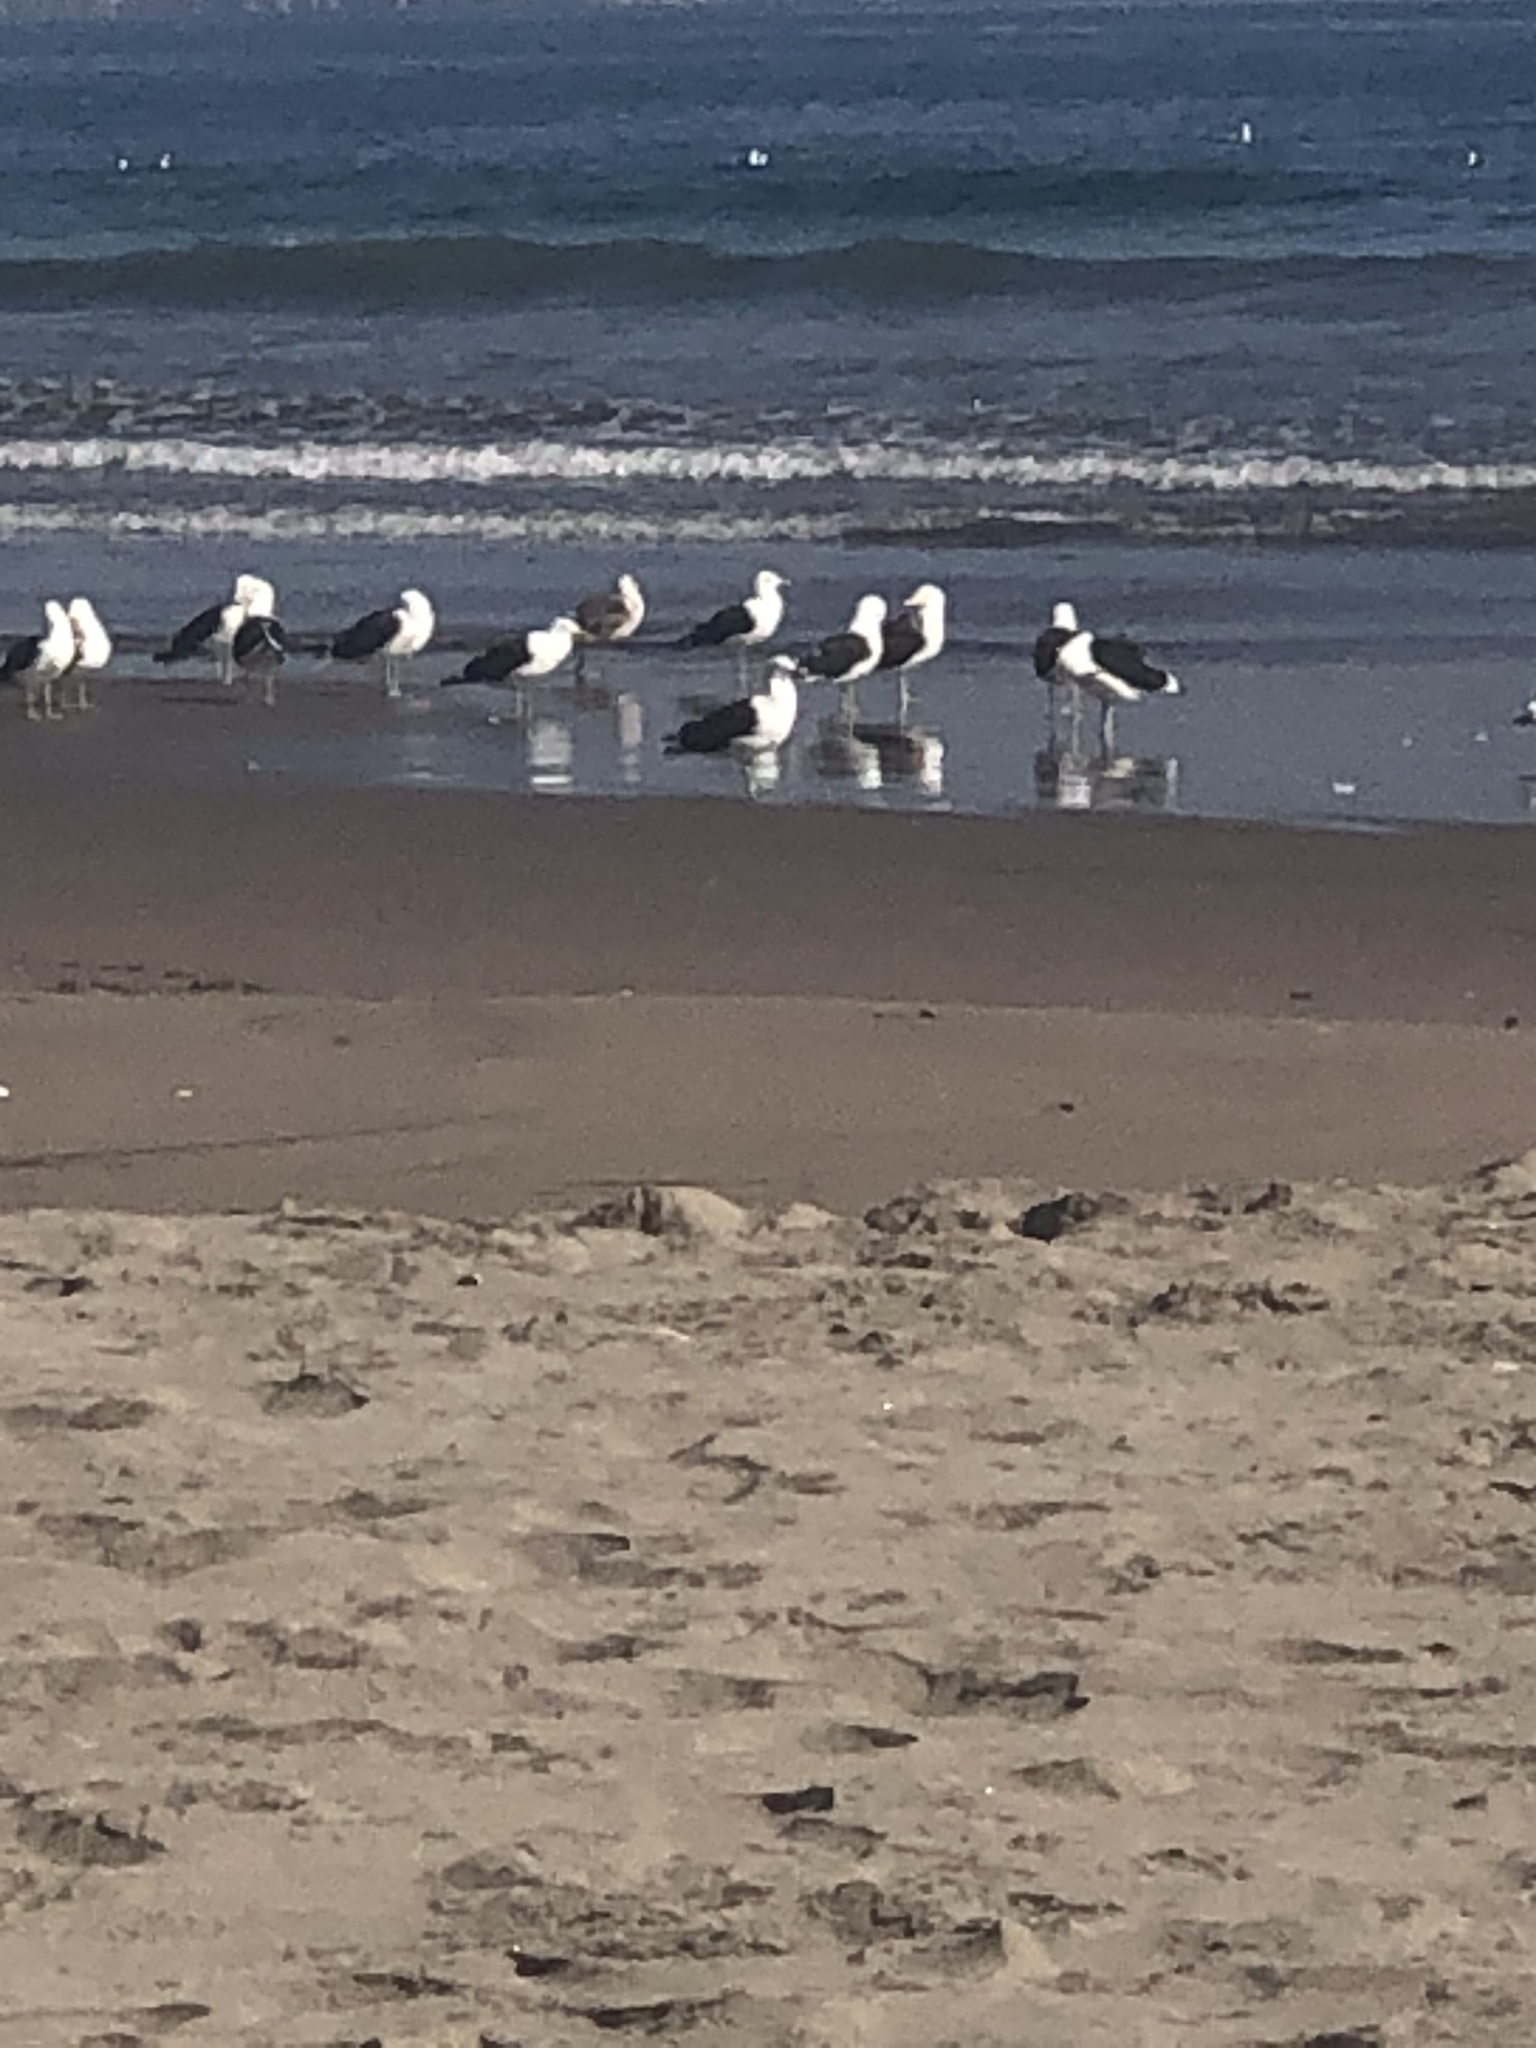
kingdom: Animalia
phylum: Chordata
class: Aves
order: Charadriiformes
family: Laridae
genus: Larus
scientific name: Larus dominicanus
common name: Kelp gull
